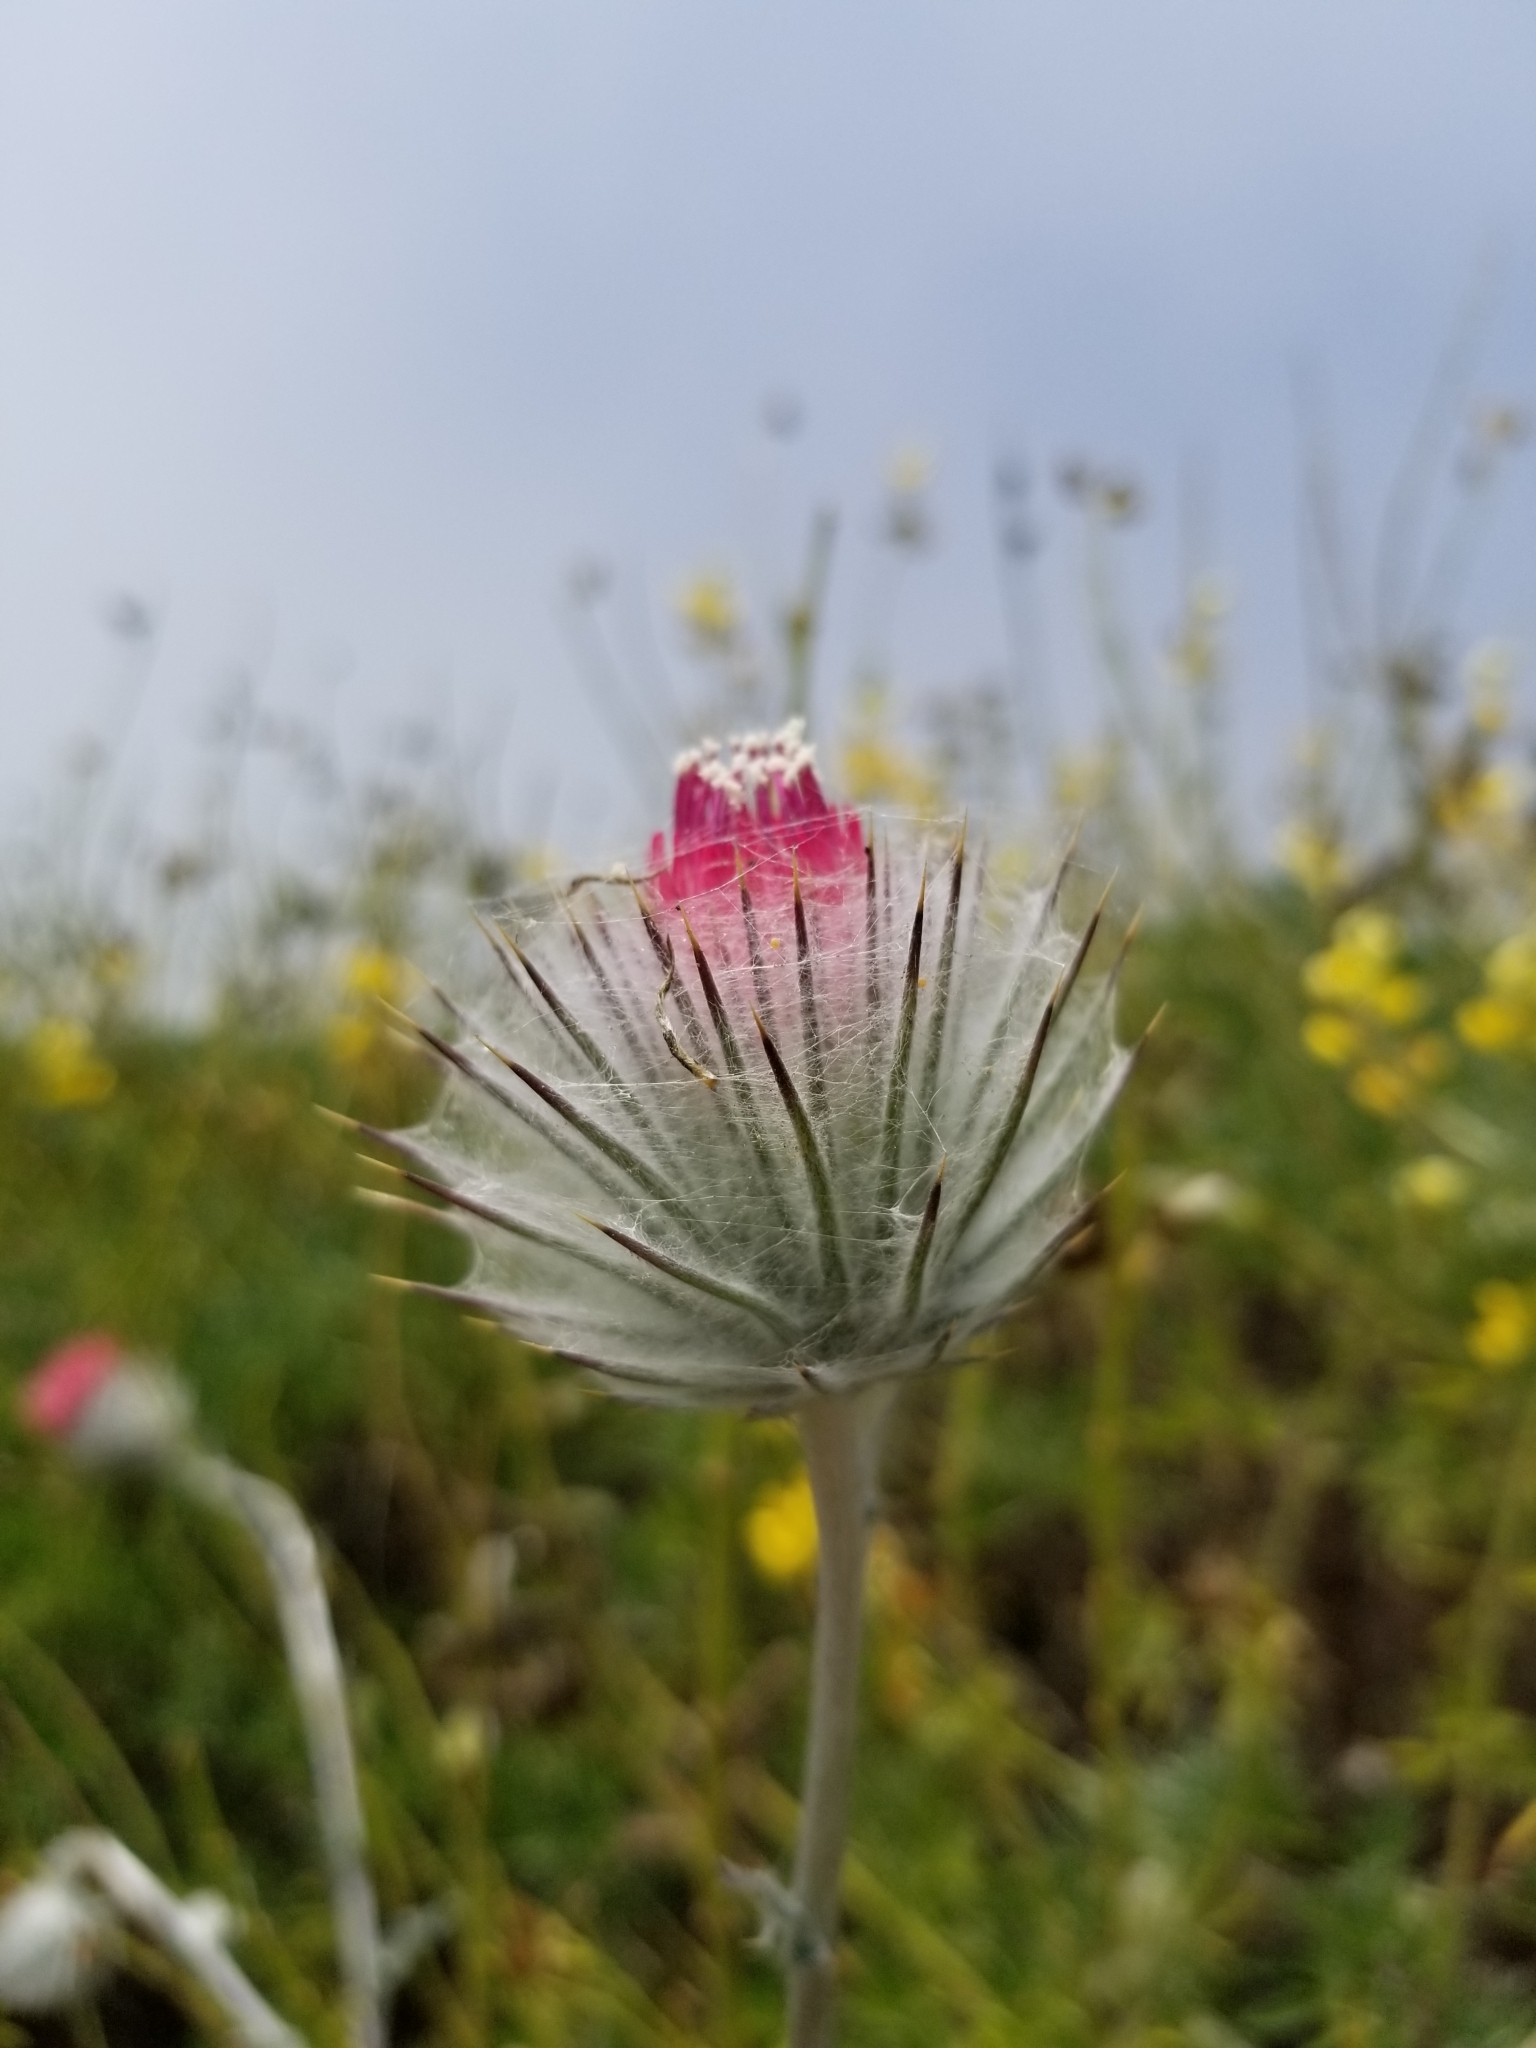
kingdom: Plantae
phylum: Tracheophyta
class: Magnoliopsida
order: Asterales
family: Asteraceae
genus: Cirsium
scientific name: Cirsium occidentale
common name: Western thistle
